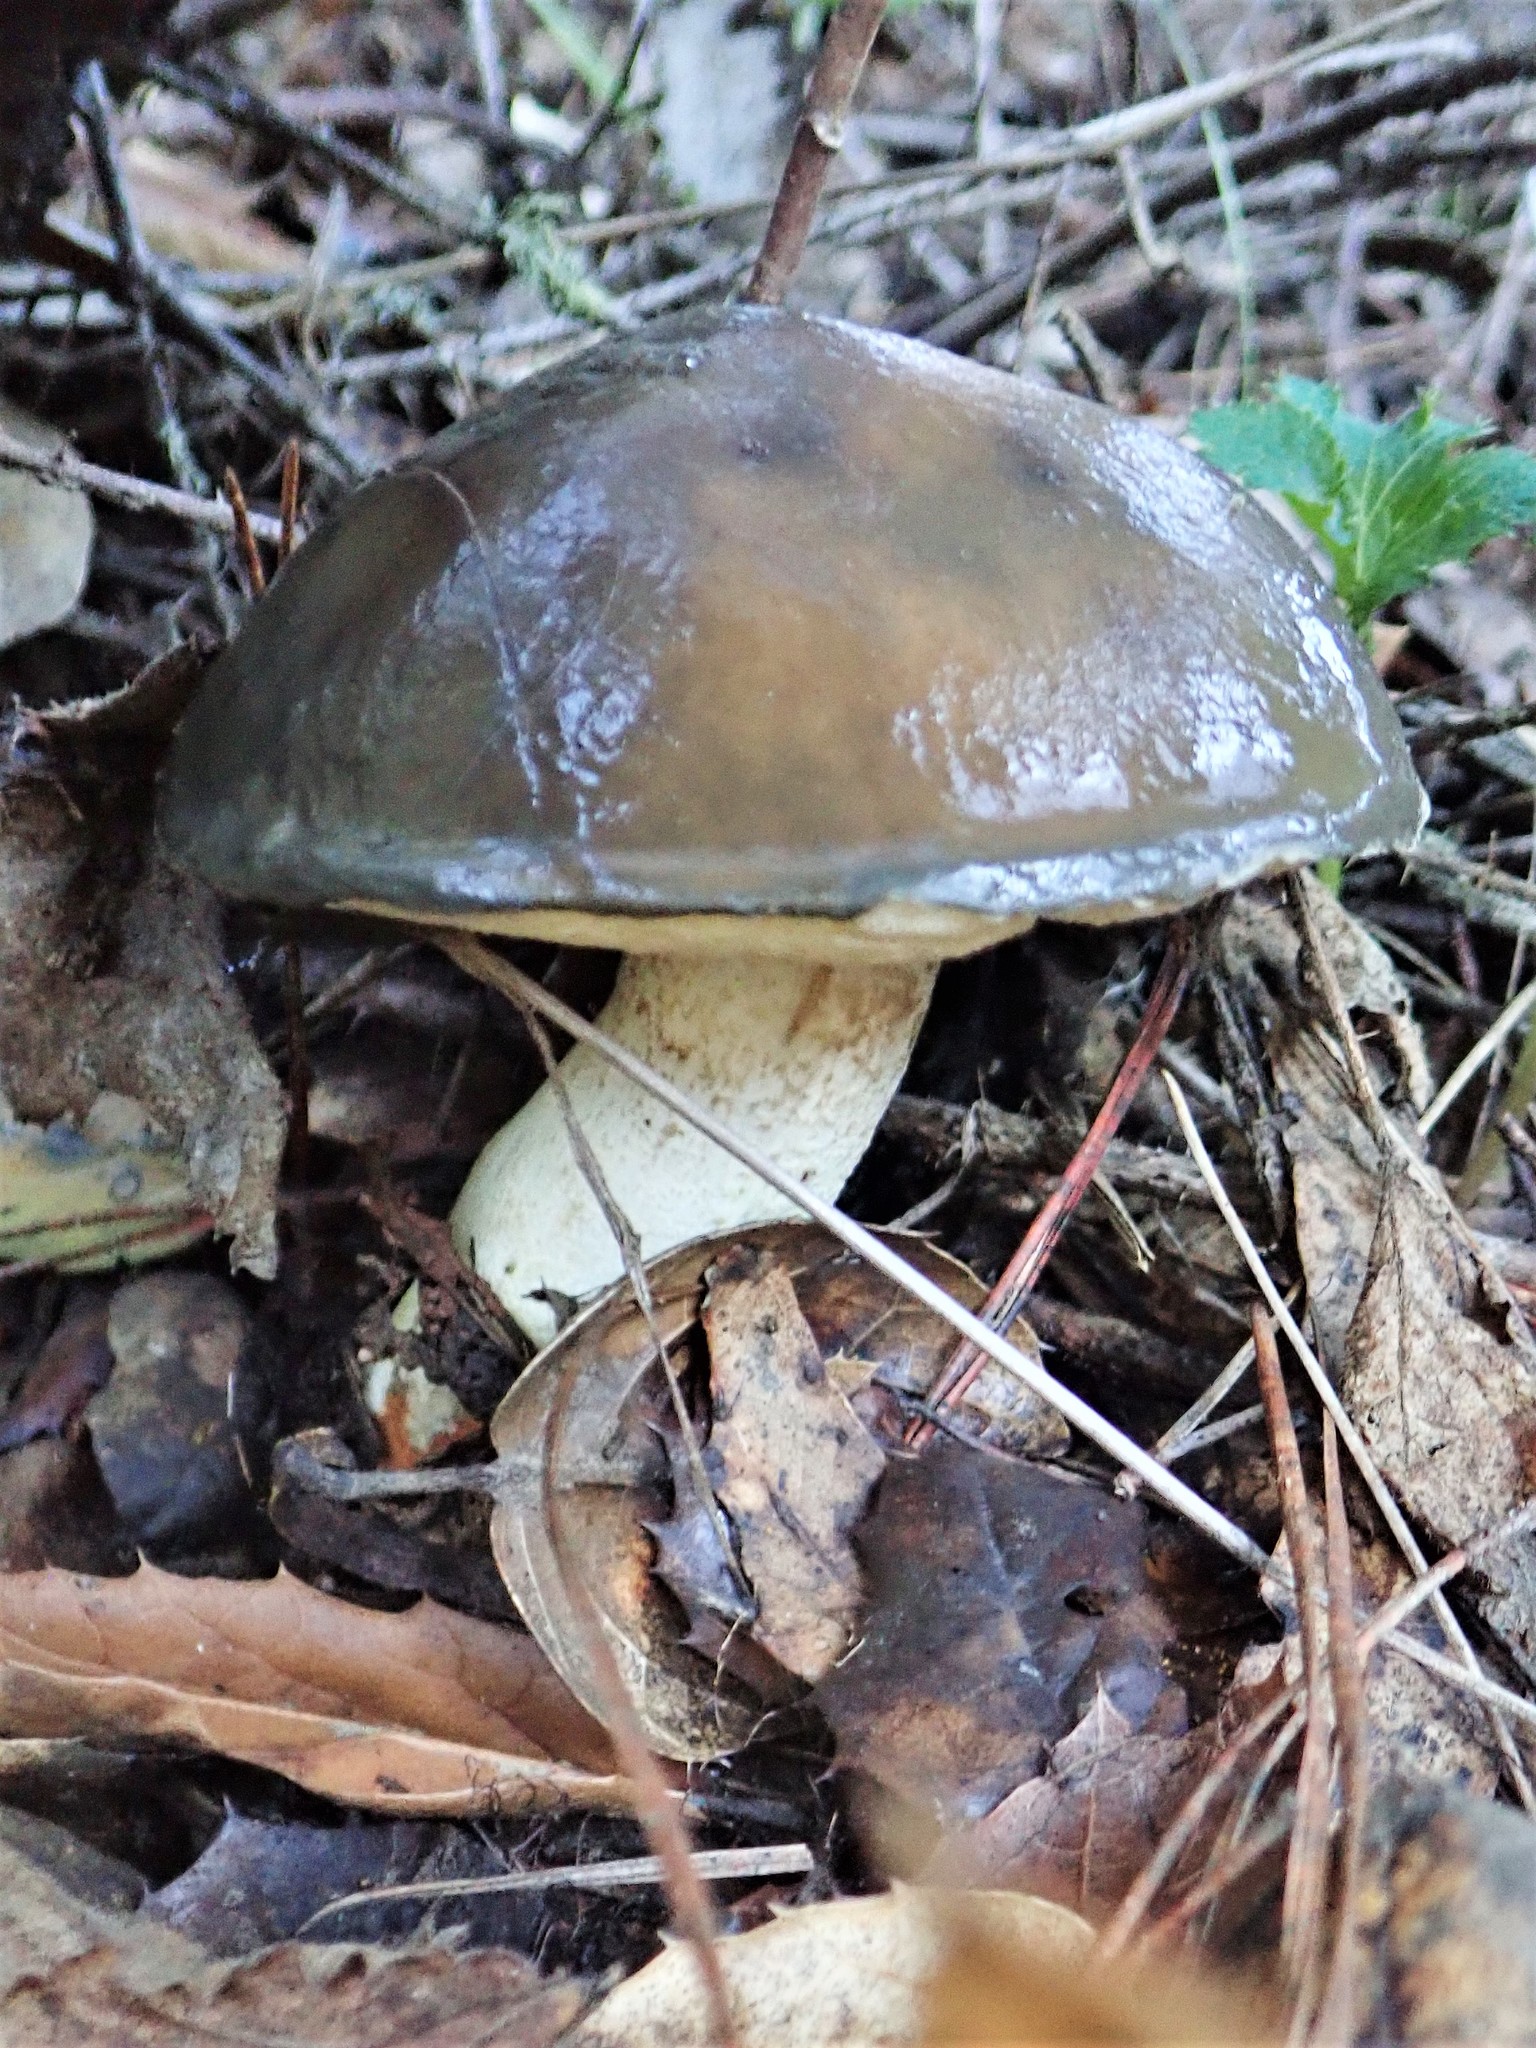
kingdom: Fungi
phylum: Basidiomycota
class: Agaricomycetes
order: Boletales
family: Suillaceae
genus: Suillus
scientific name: Suillus pungens
